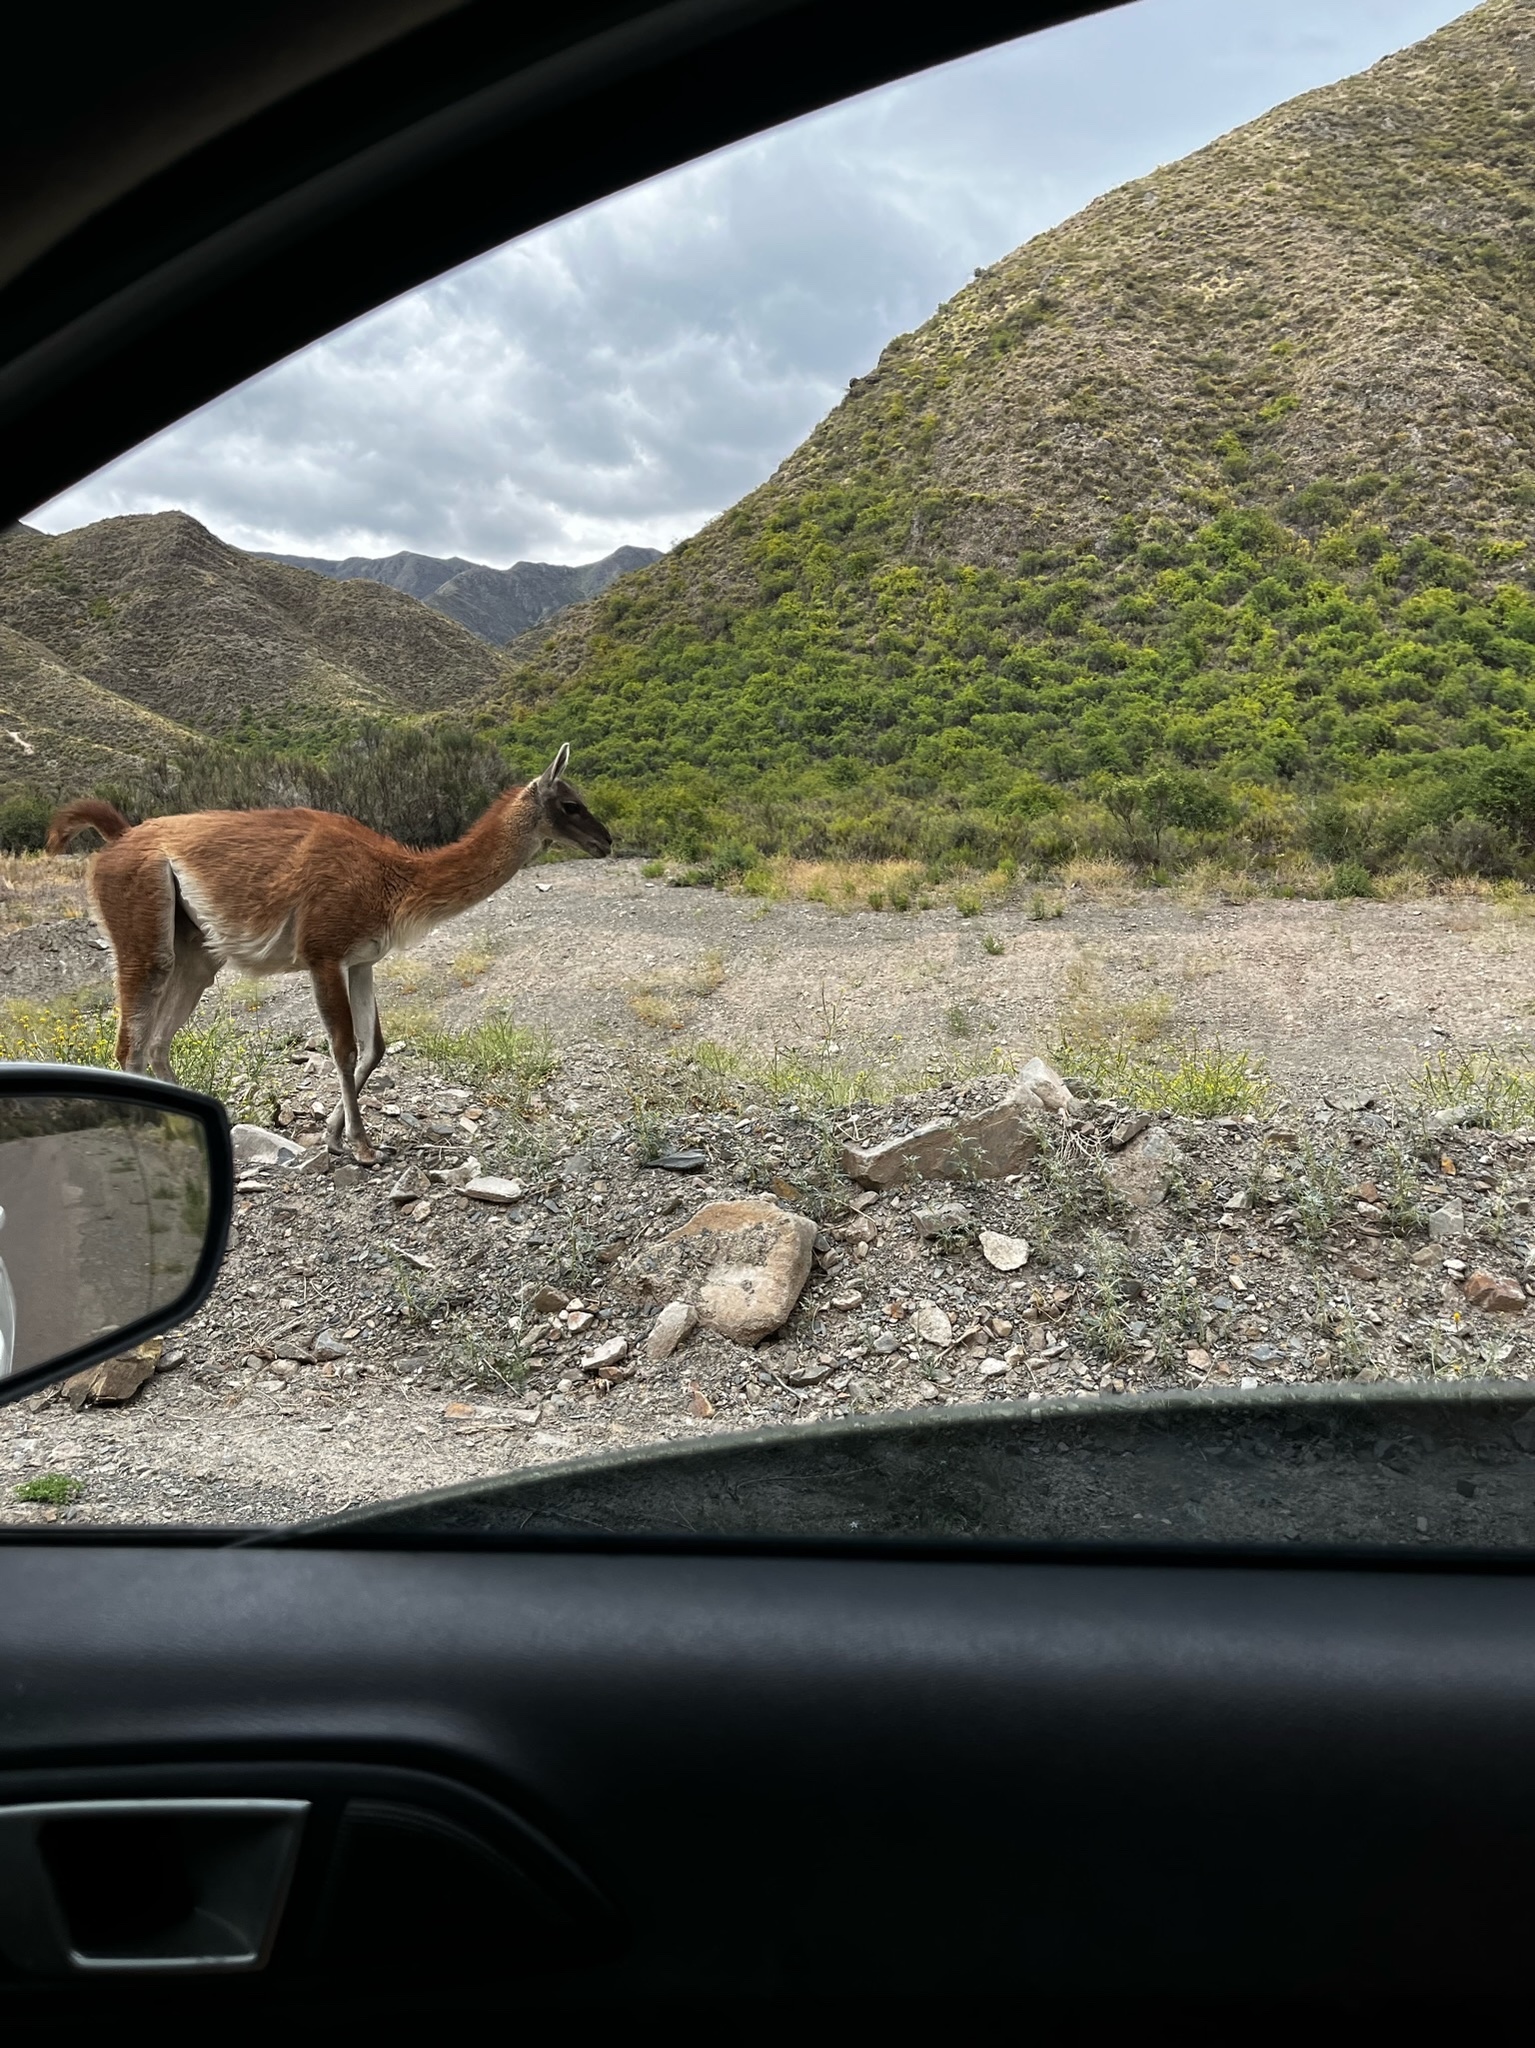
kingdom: Animalia
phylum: Chordata
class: Mammalia
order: Artiodactyla
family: Camelidae
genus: Lama
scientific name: Lama glama
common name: Llama
